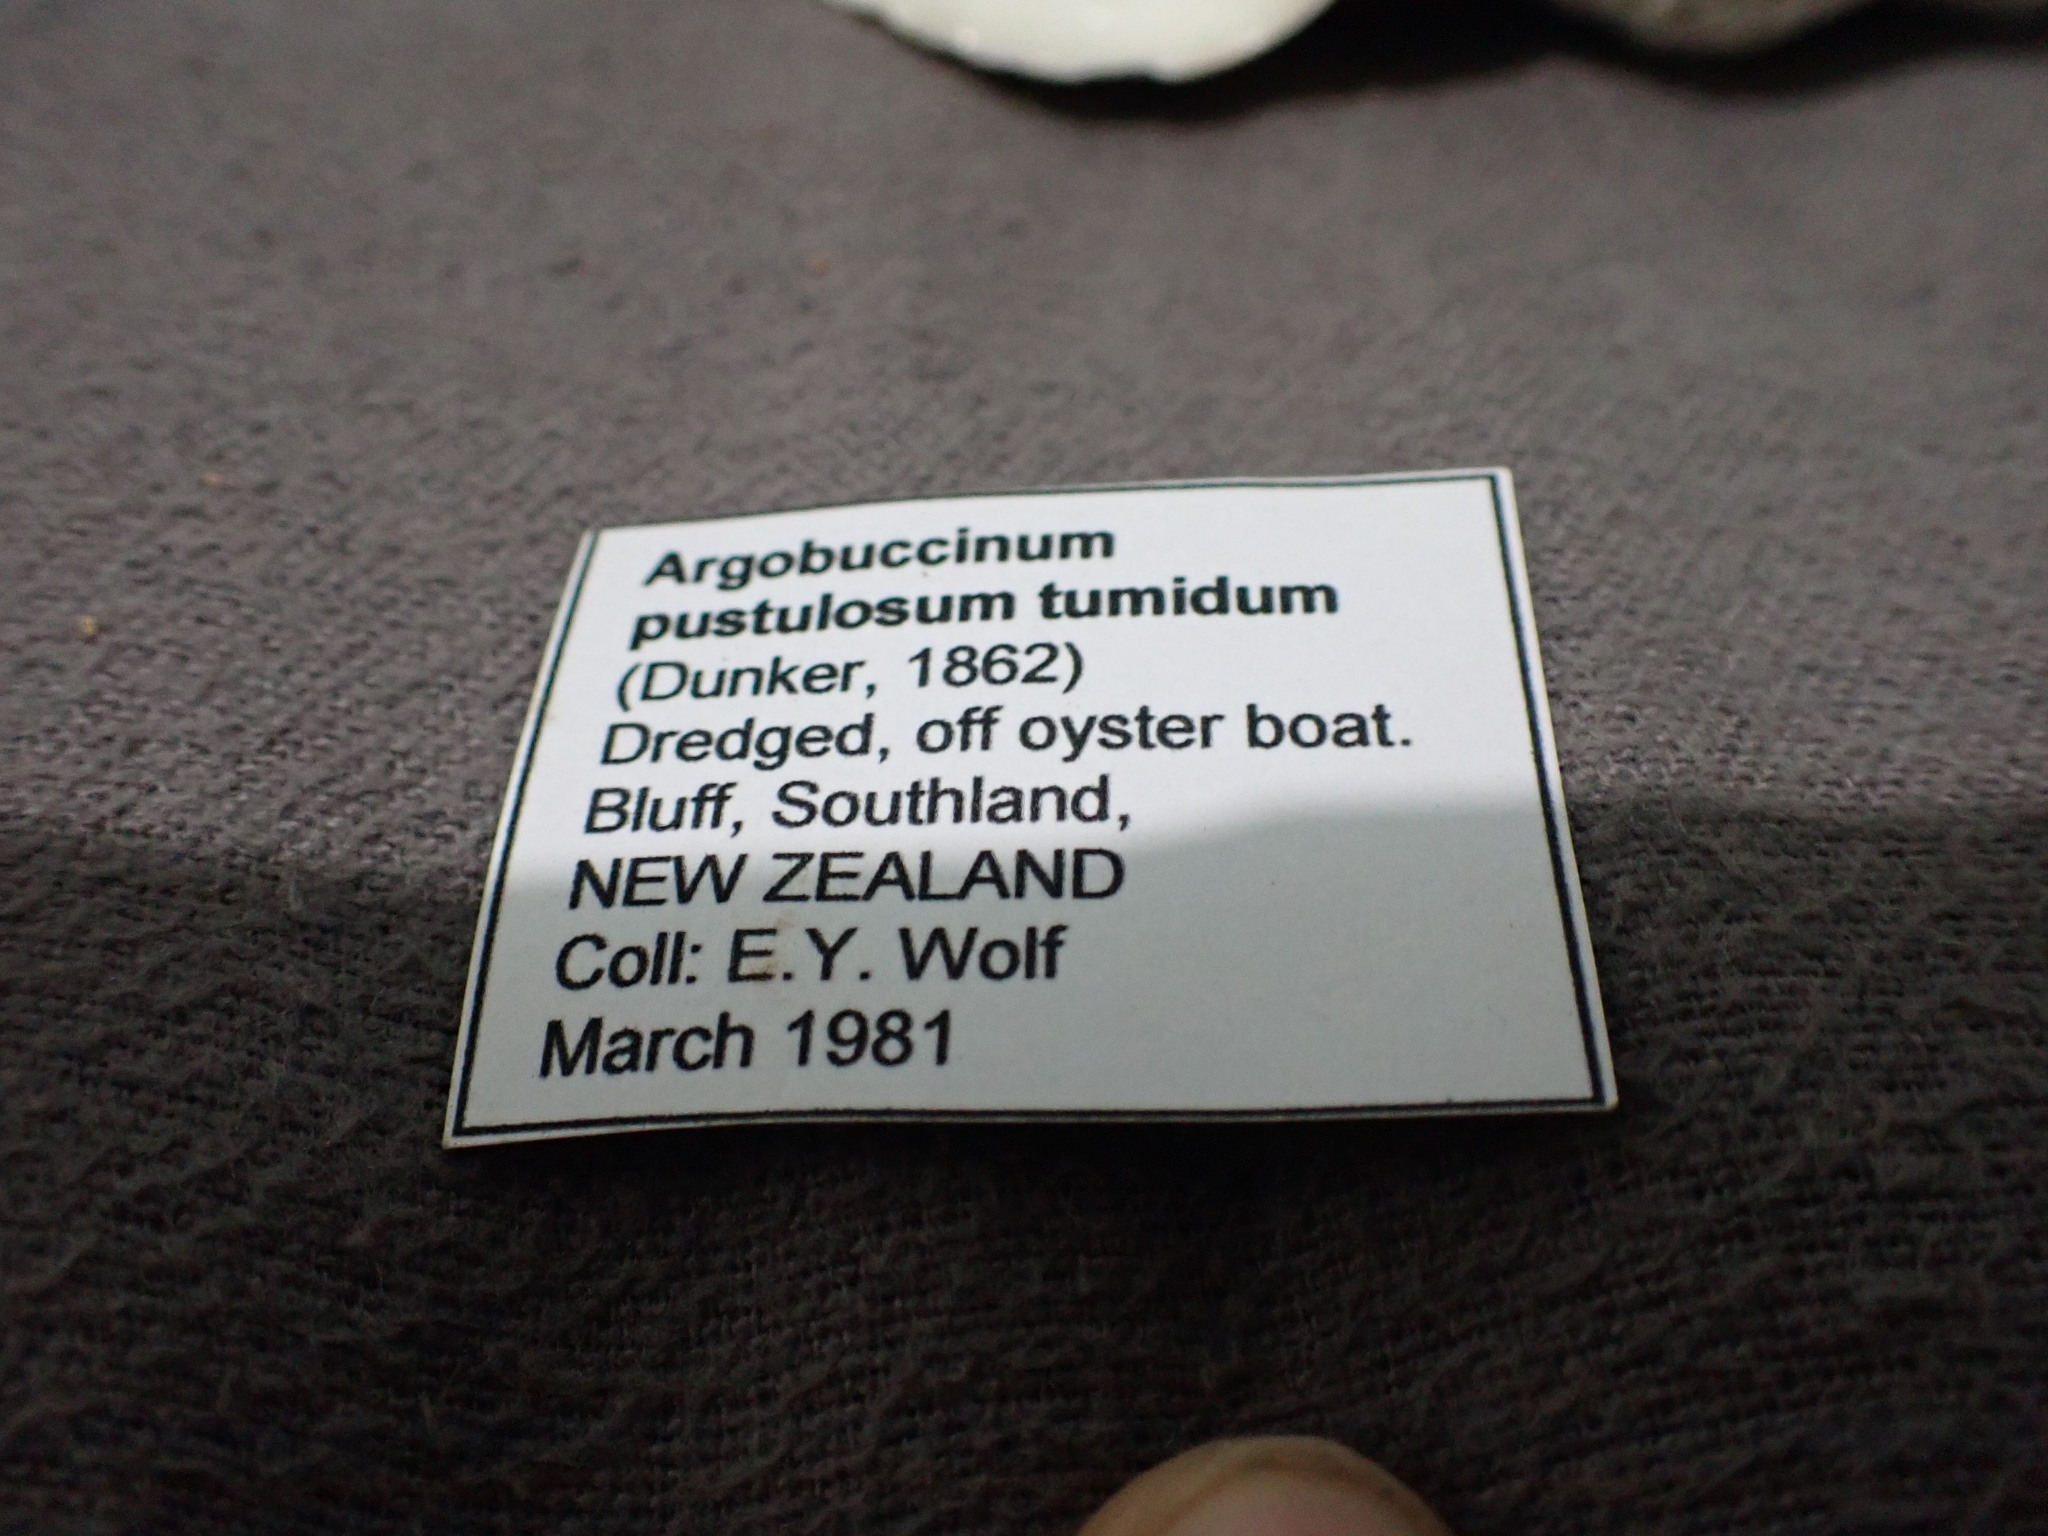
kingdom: Animalia
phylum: Mollusca
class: Gastropoda
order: Littorinimorpha
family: Cymatiidae
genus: Argobuccinum
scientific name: Argobuccinum pustulosum
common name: Pustular triton
